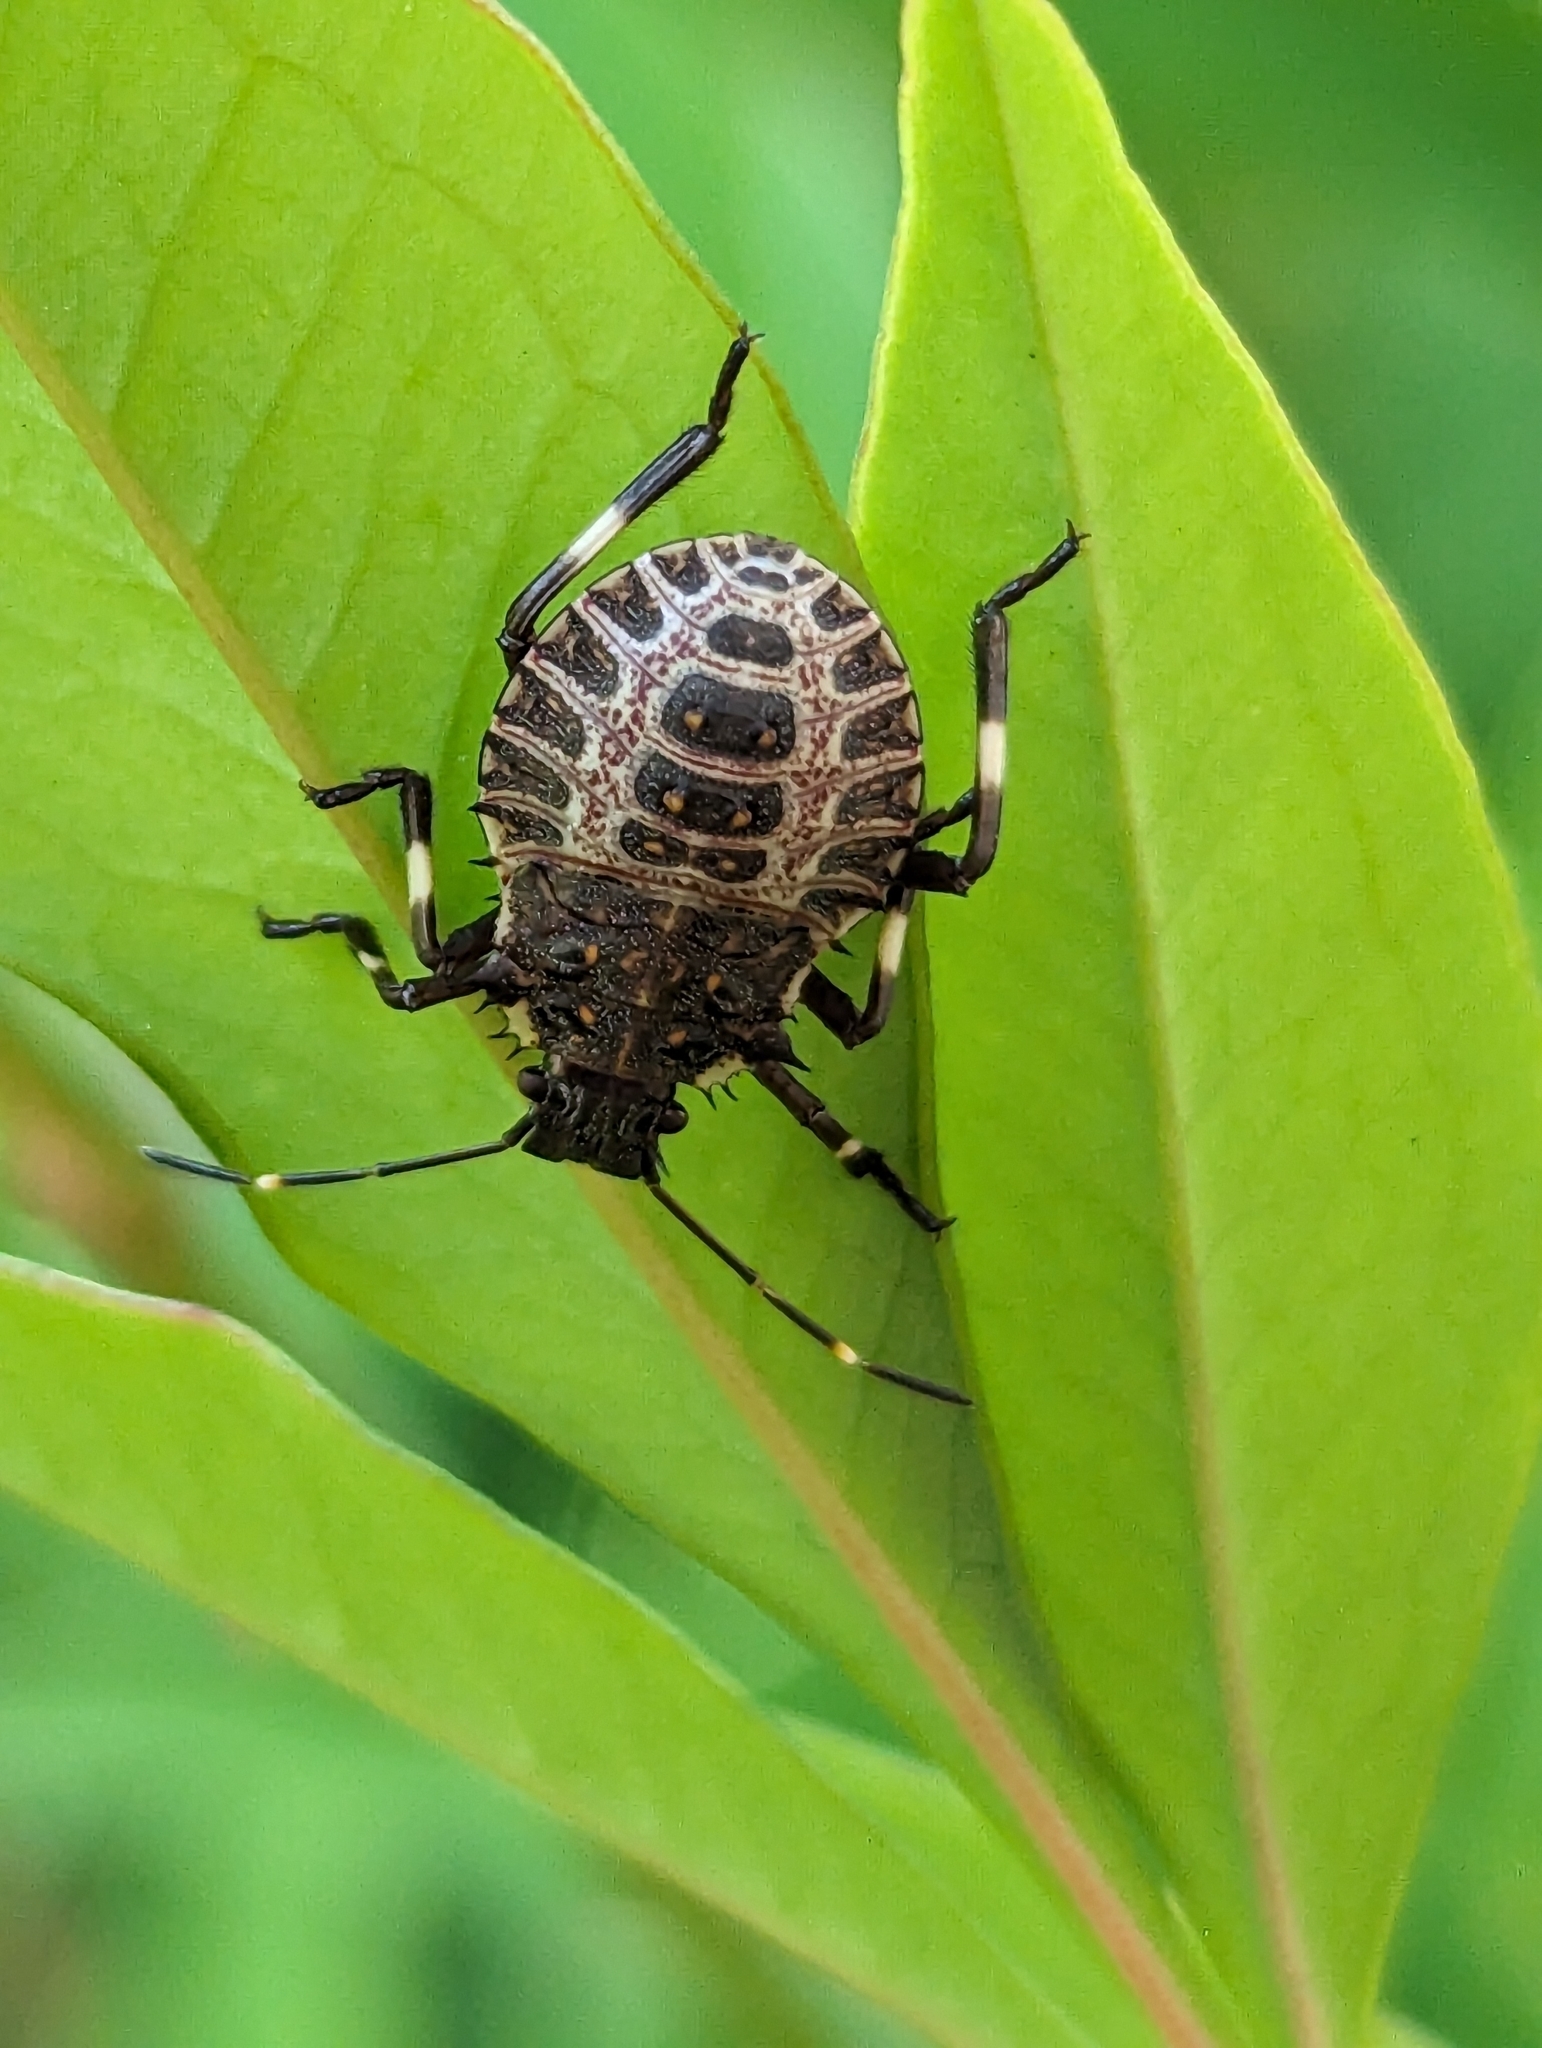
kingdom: Animalia
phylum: Arthropoda
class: Insecta
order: Hemiptera
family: Pentatomidae
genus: Halyomorpha
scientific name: Halyomorpha halys
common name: Brown marmorated stink bug
